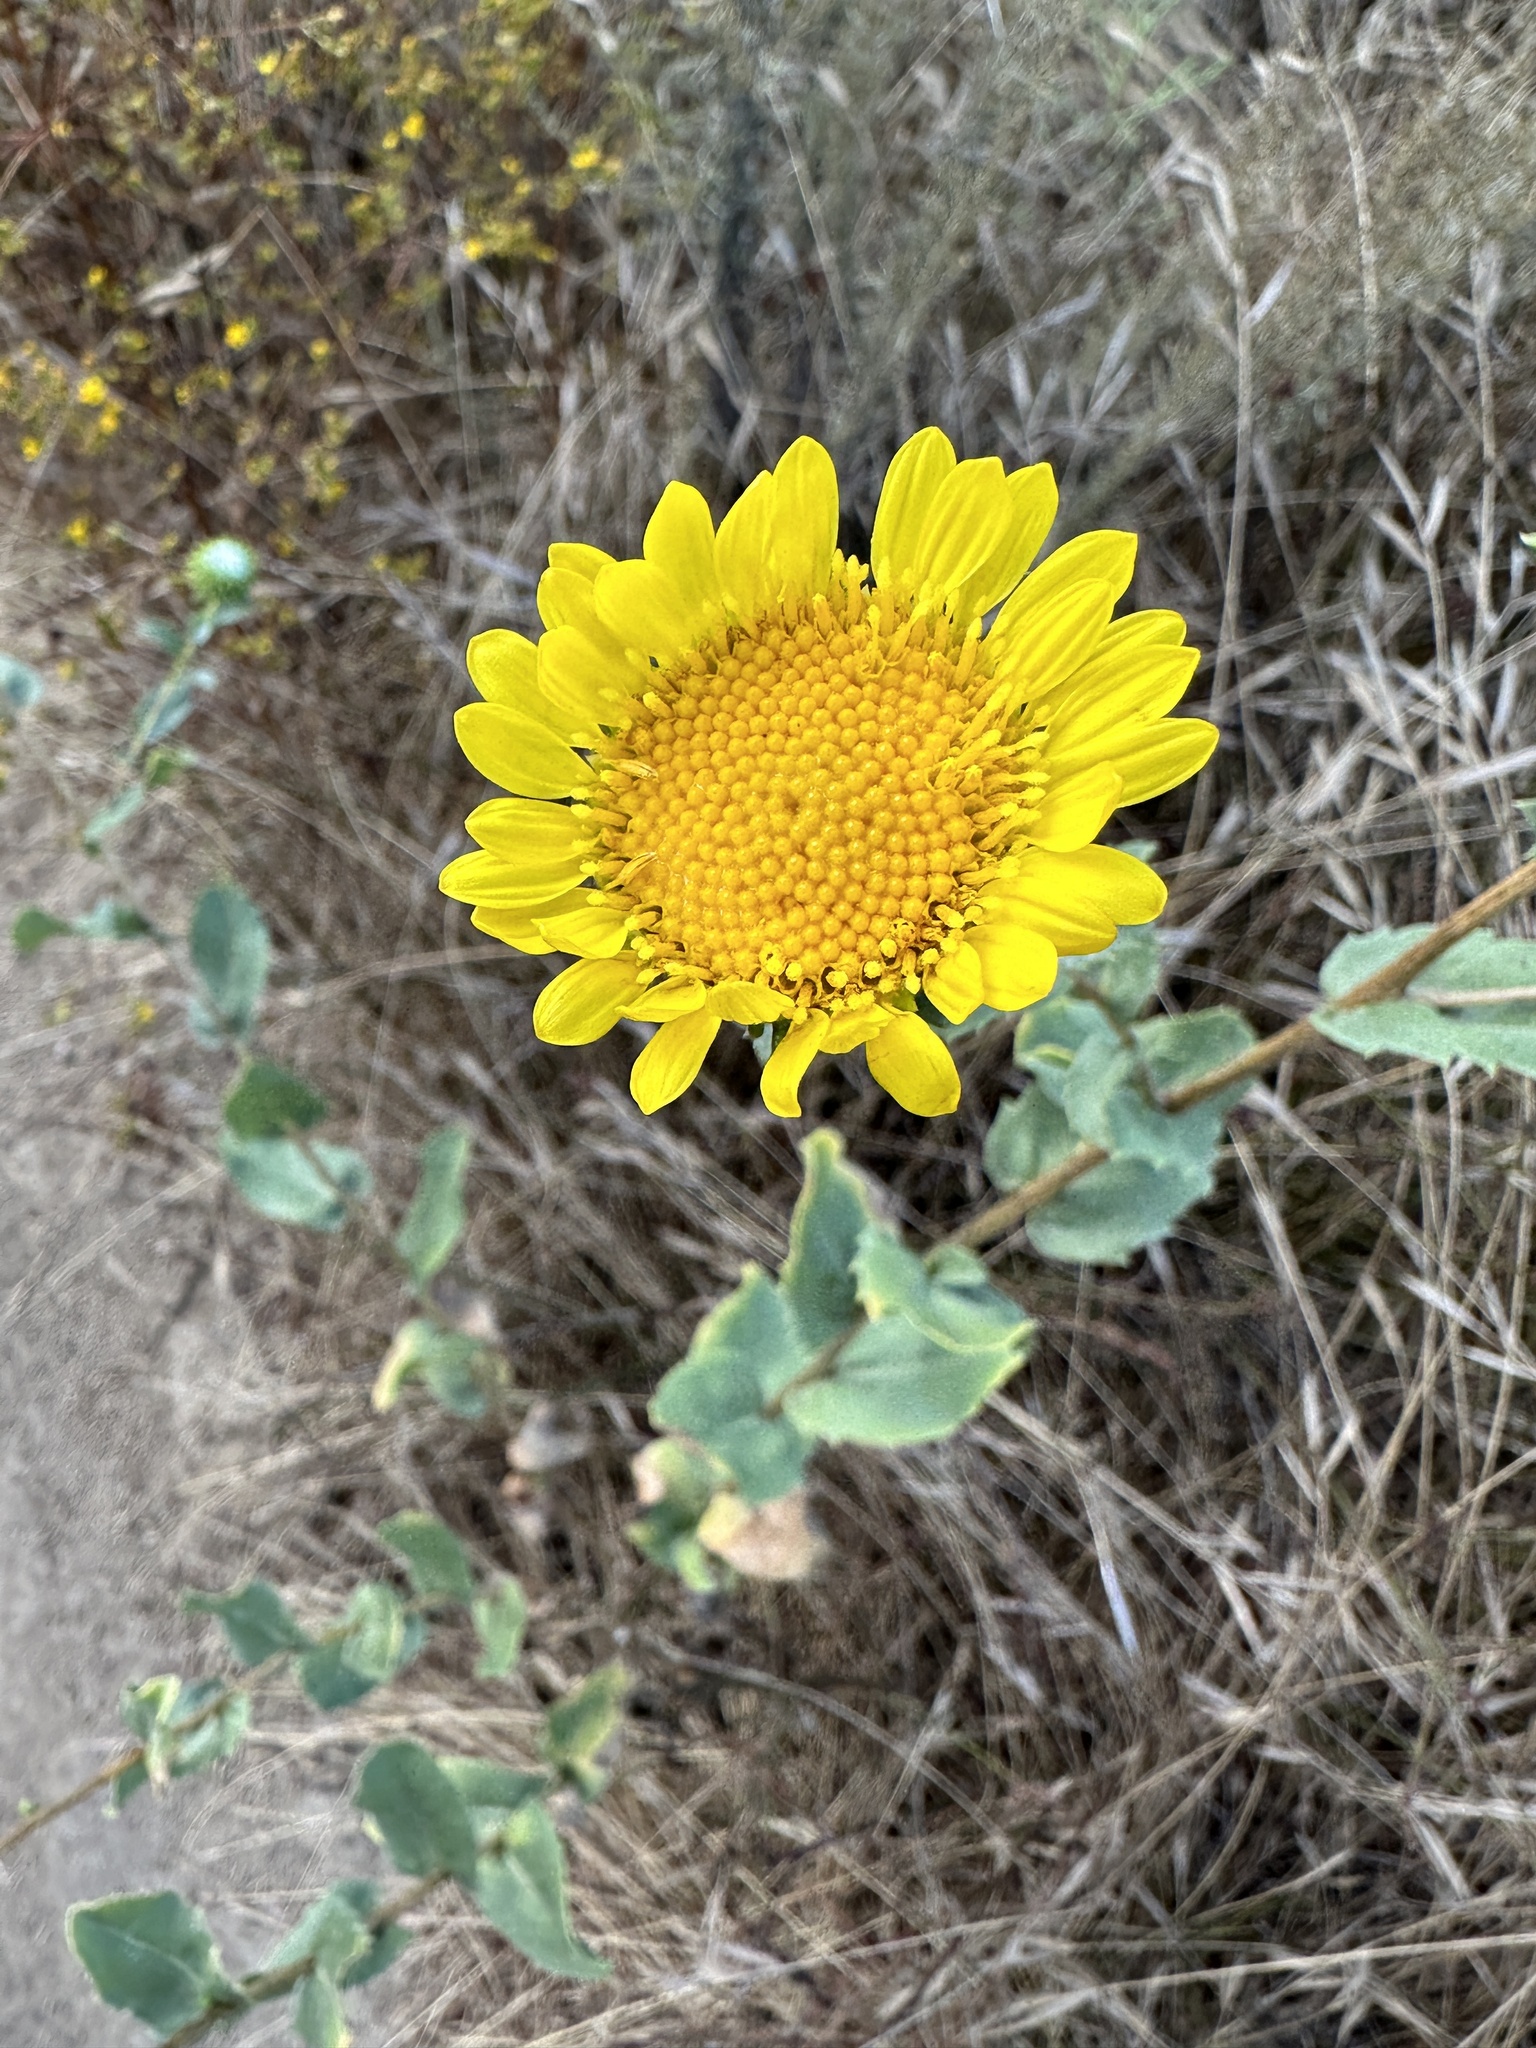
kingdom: Plantae
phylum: Tracheophyta
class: Magnoliopsida
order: Asterales
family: Asteraceae
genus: Grindelia
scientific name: Grindelia hirsutula
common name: Hairy gumweed
